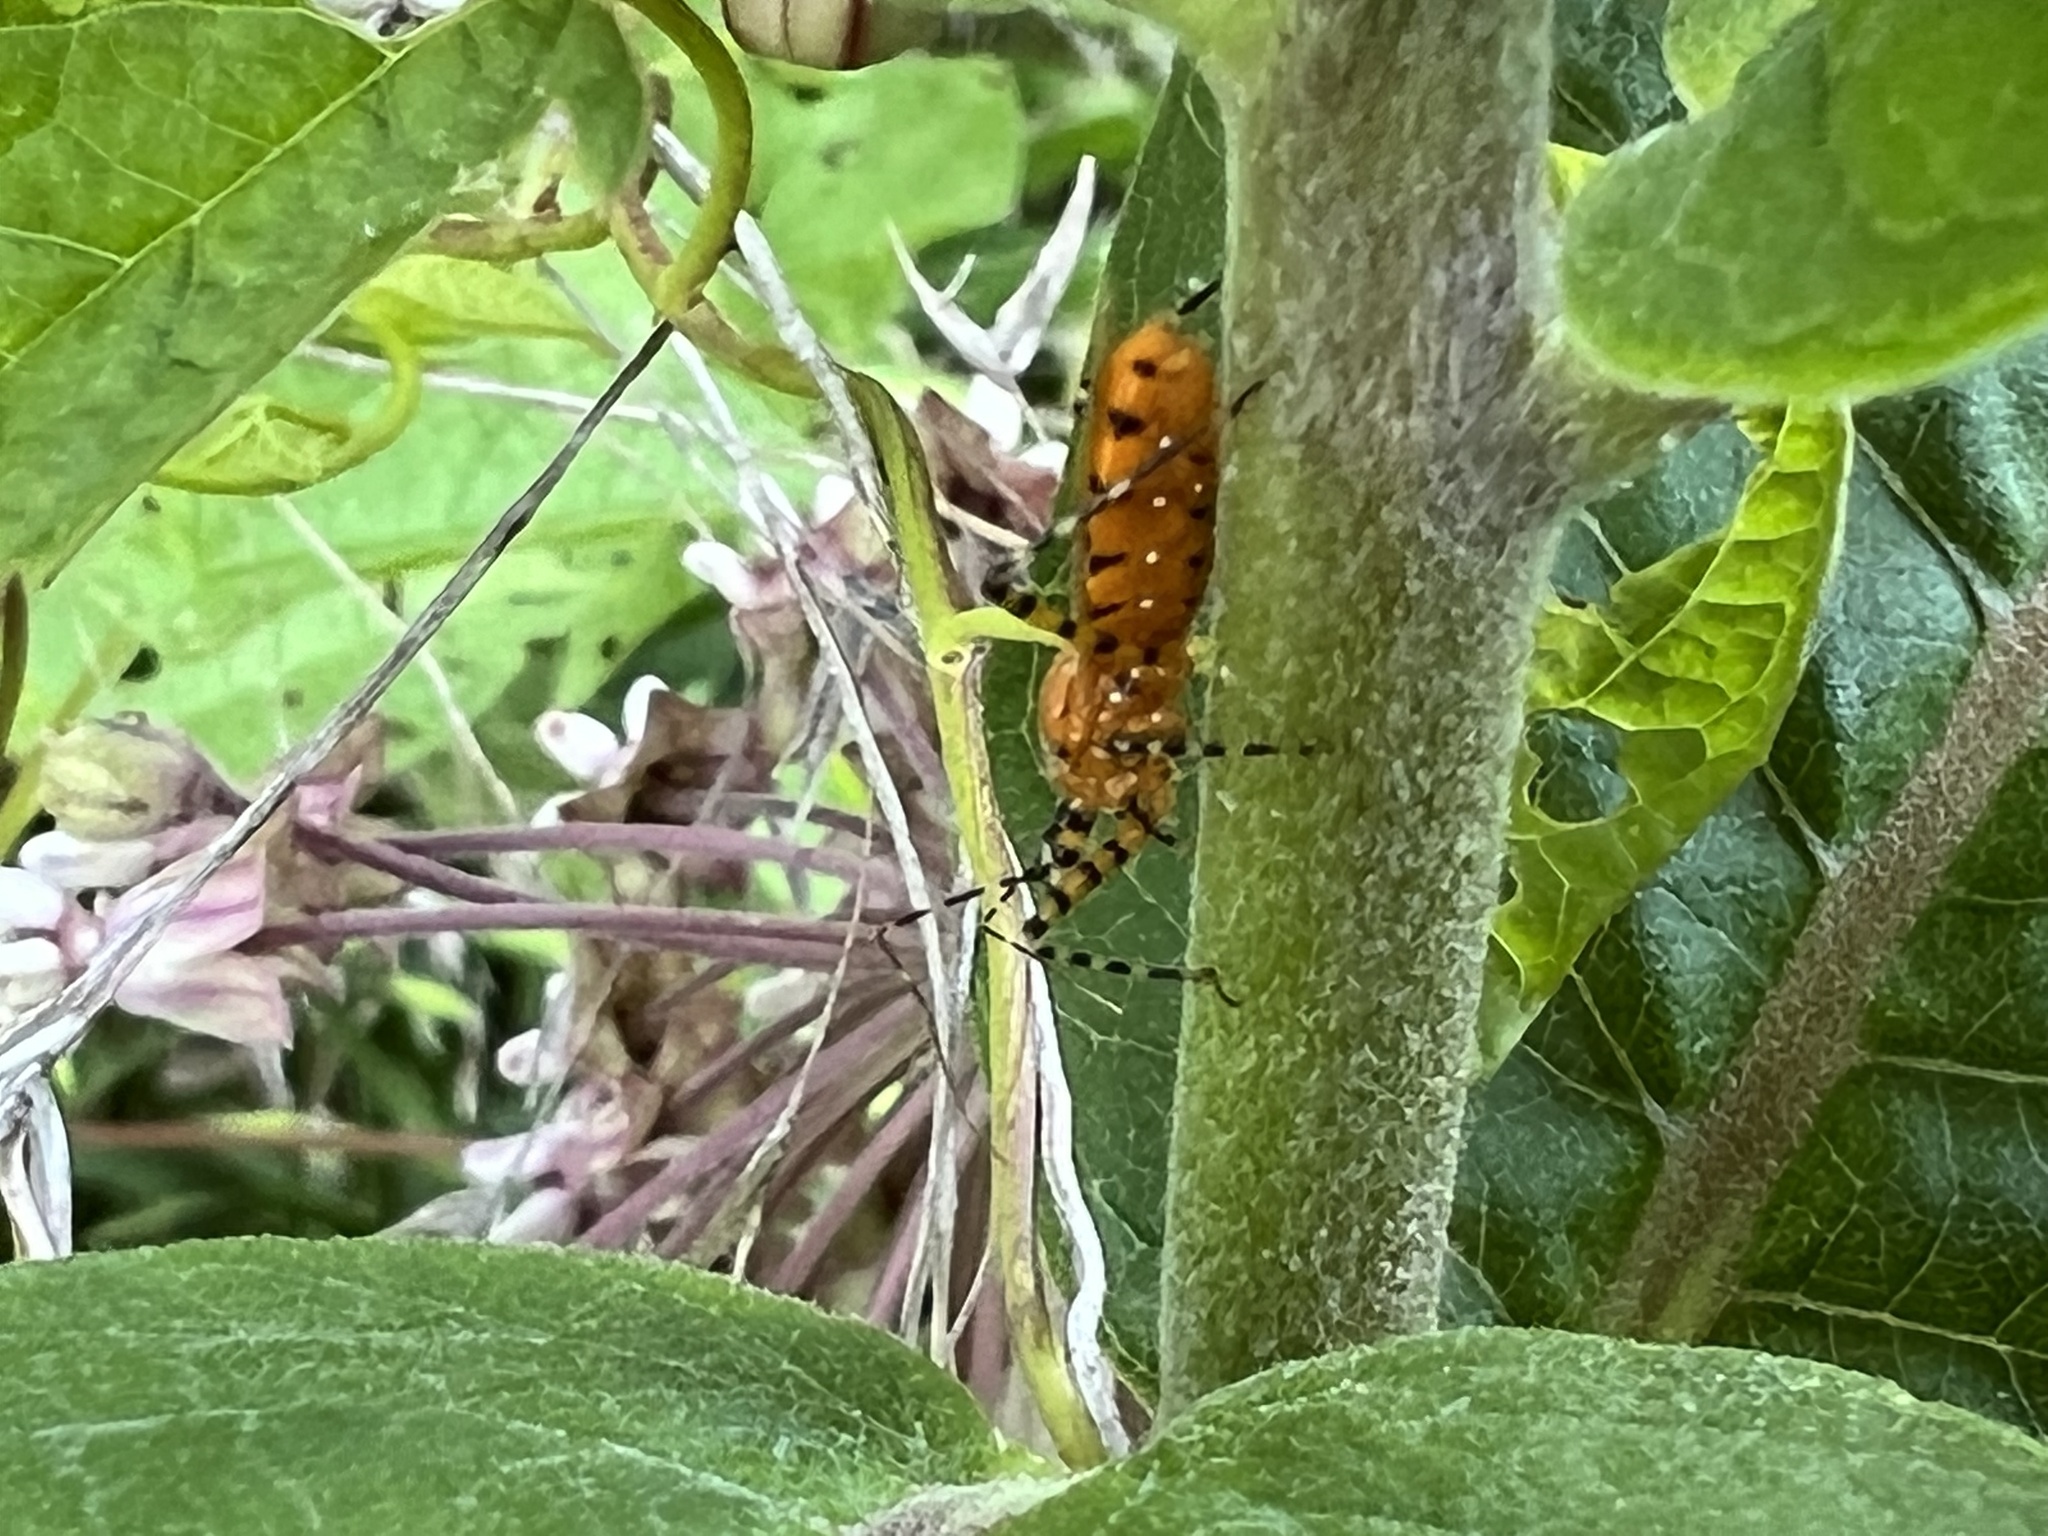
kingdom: Animalia
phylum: Arthropoda
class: Insecta
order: Hemiptera
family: Reduviidae
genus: Pselliopus
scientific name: Pselliopus barberi
